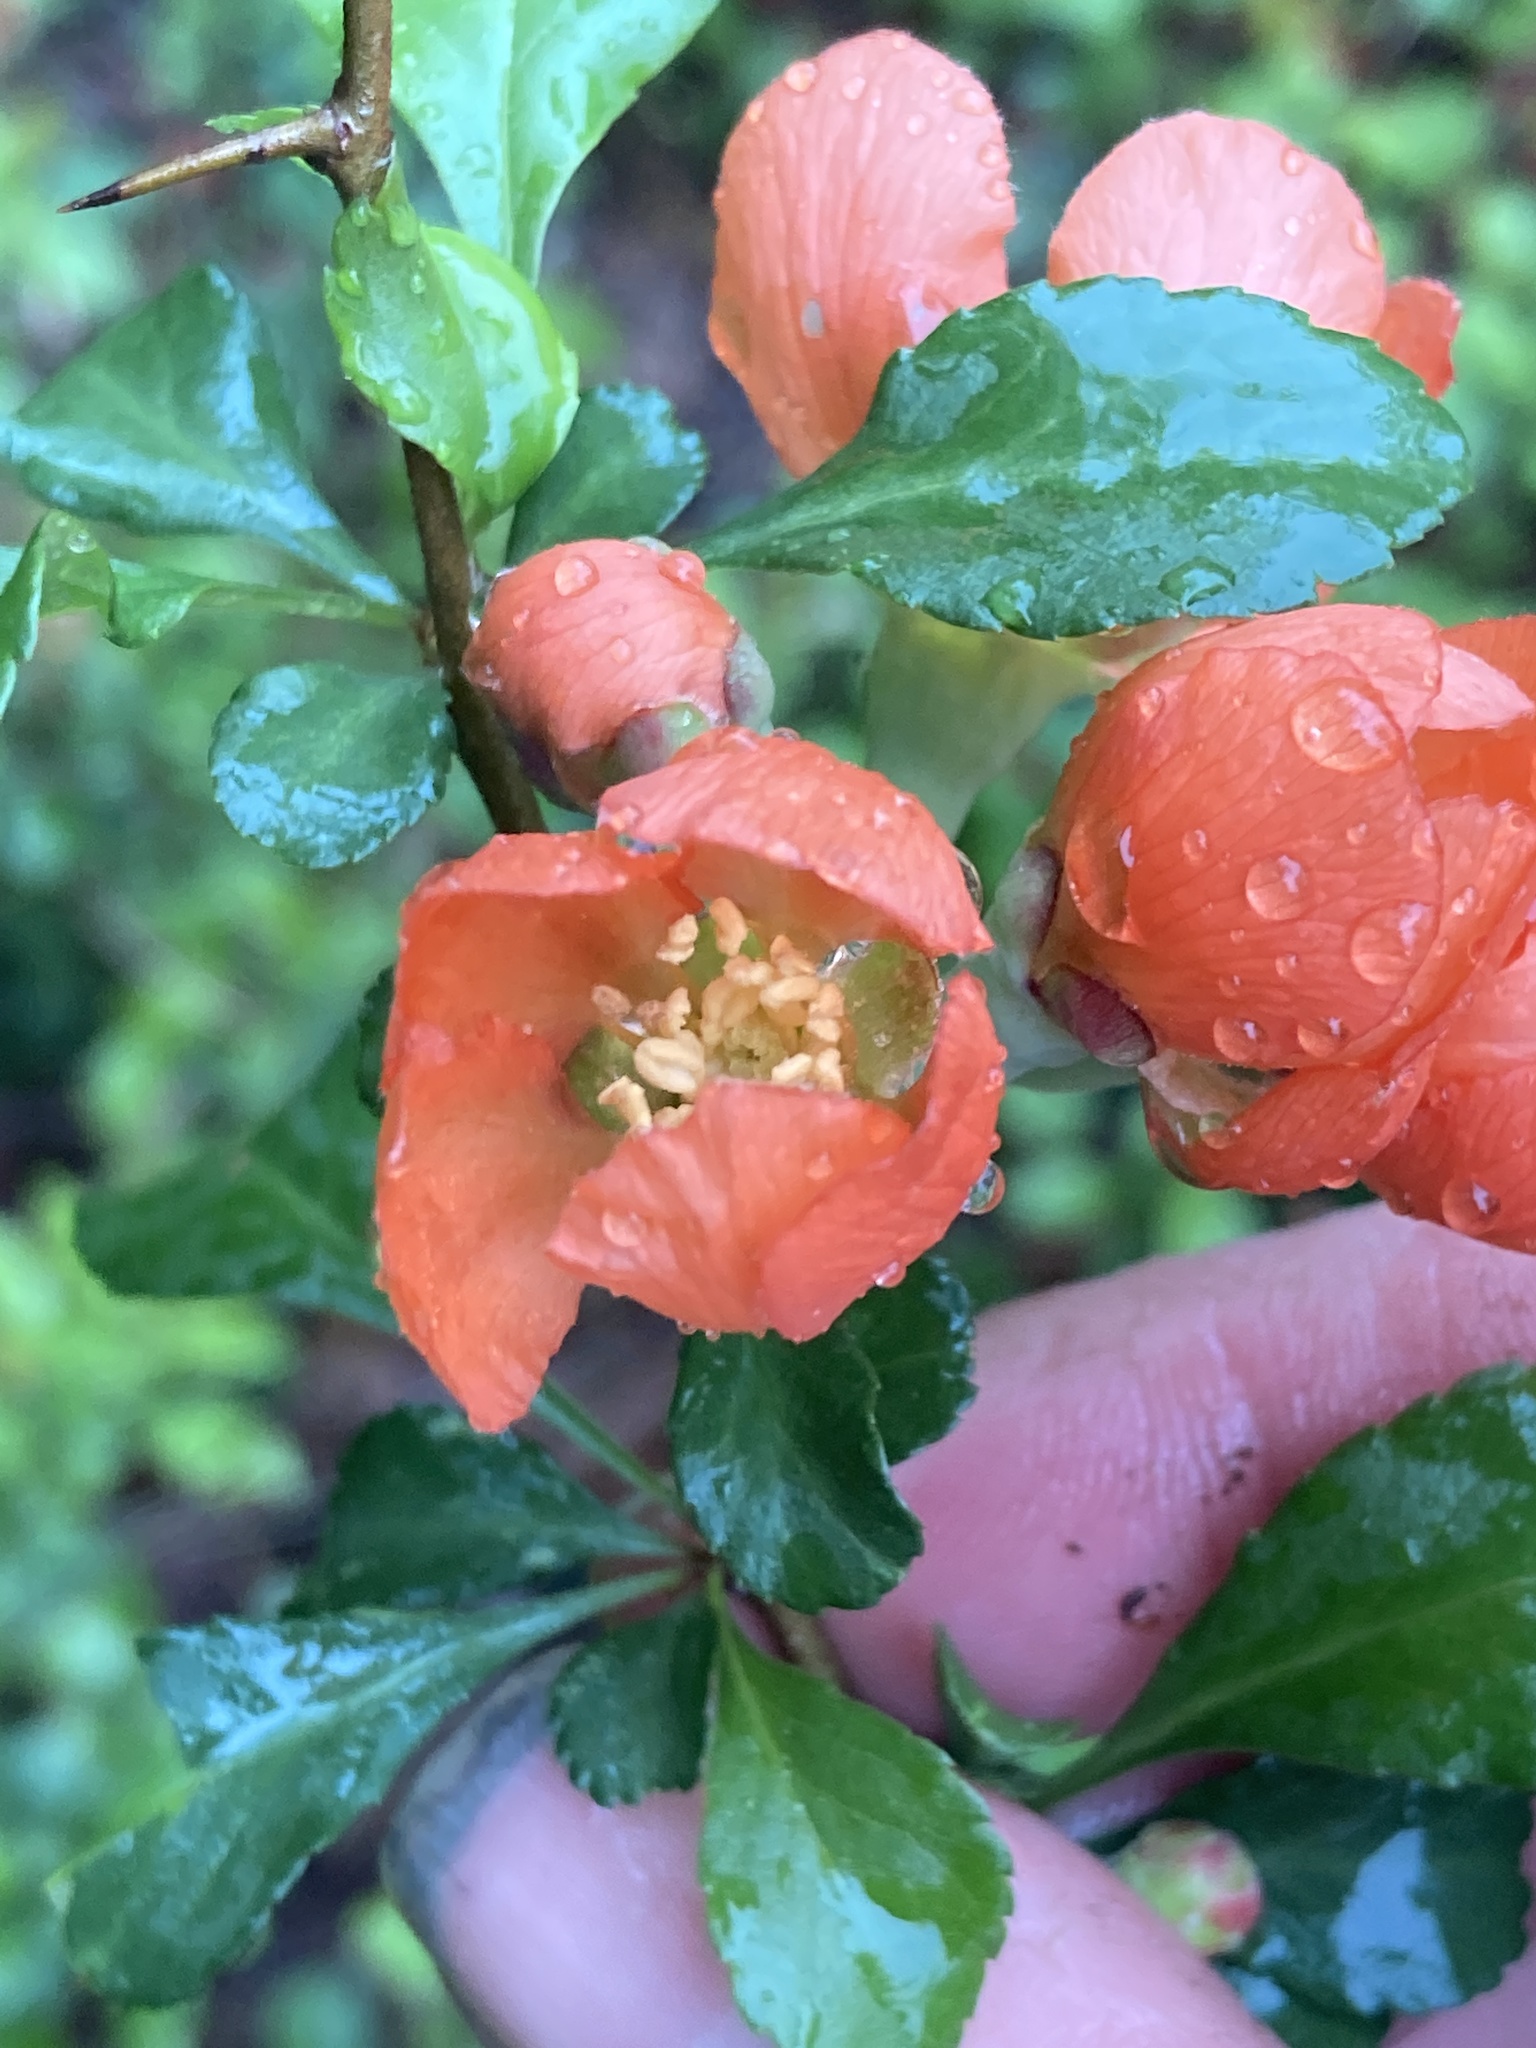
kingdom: Plantae
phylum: Tracheophyta
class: Magnoliopsida
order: Rosales
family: Rosaceae
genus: Chaenomeles
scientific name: Chaenomeles japonica
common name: Japanese quince
